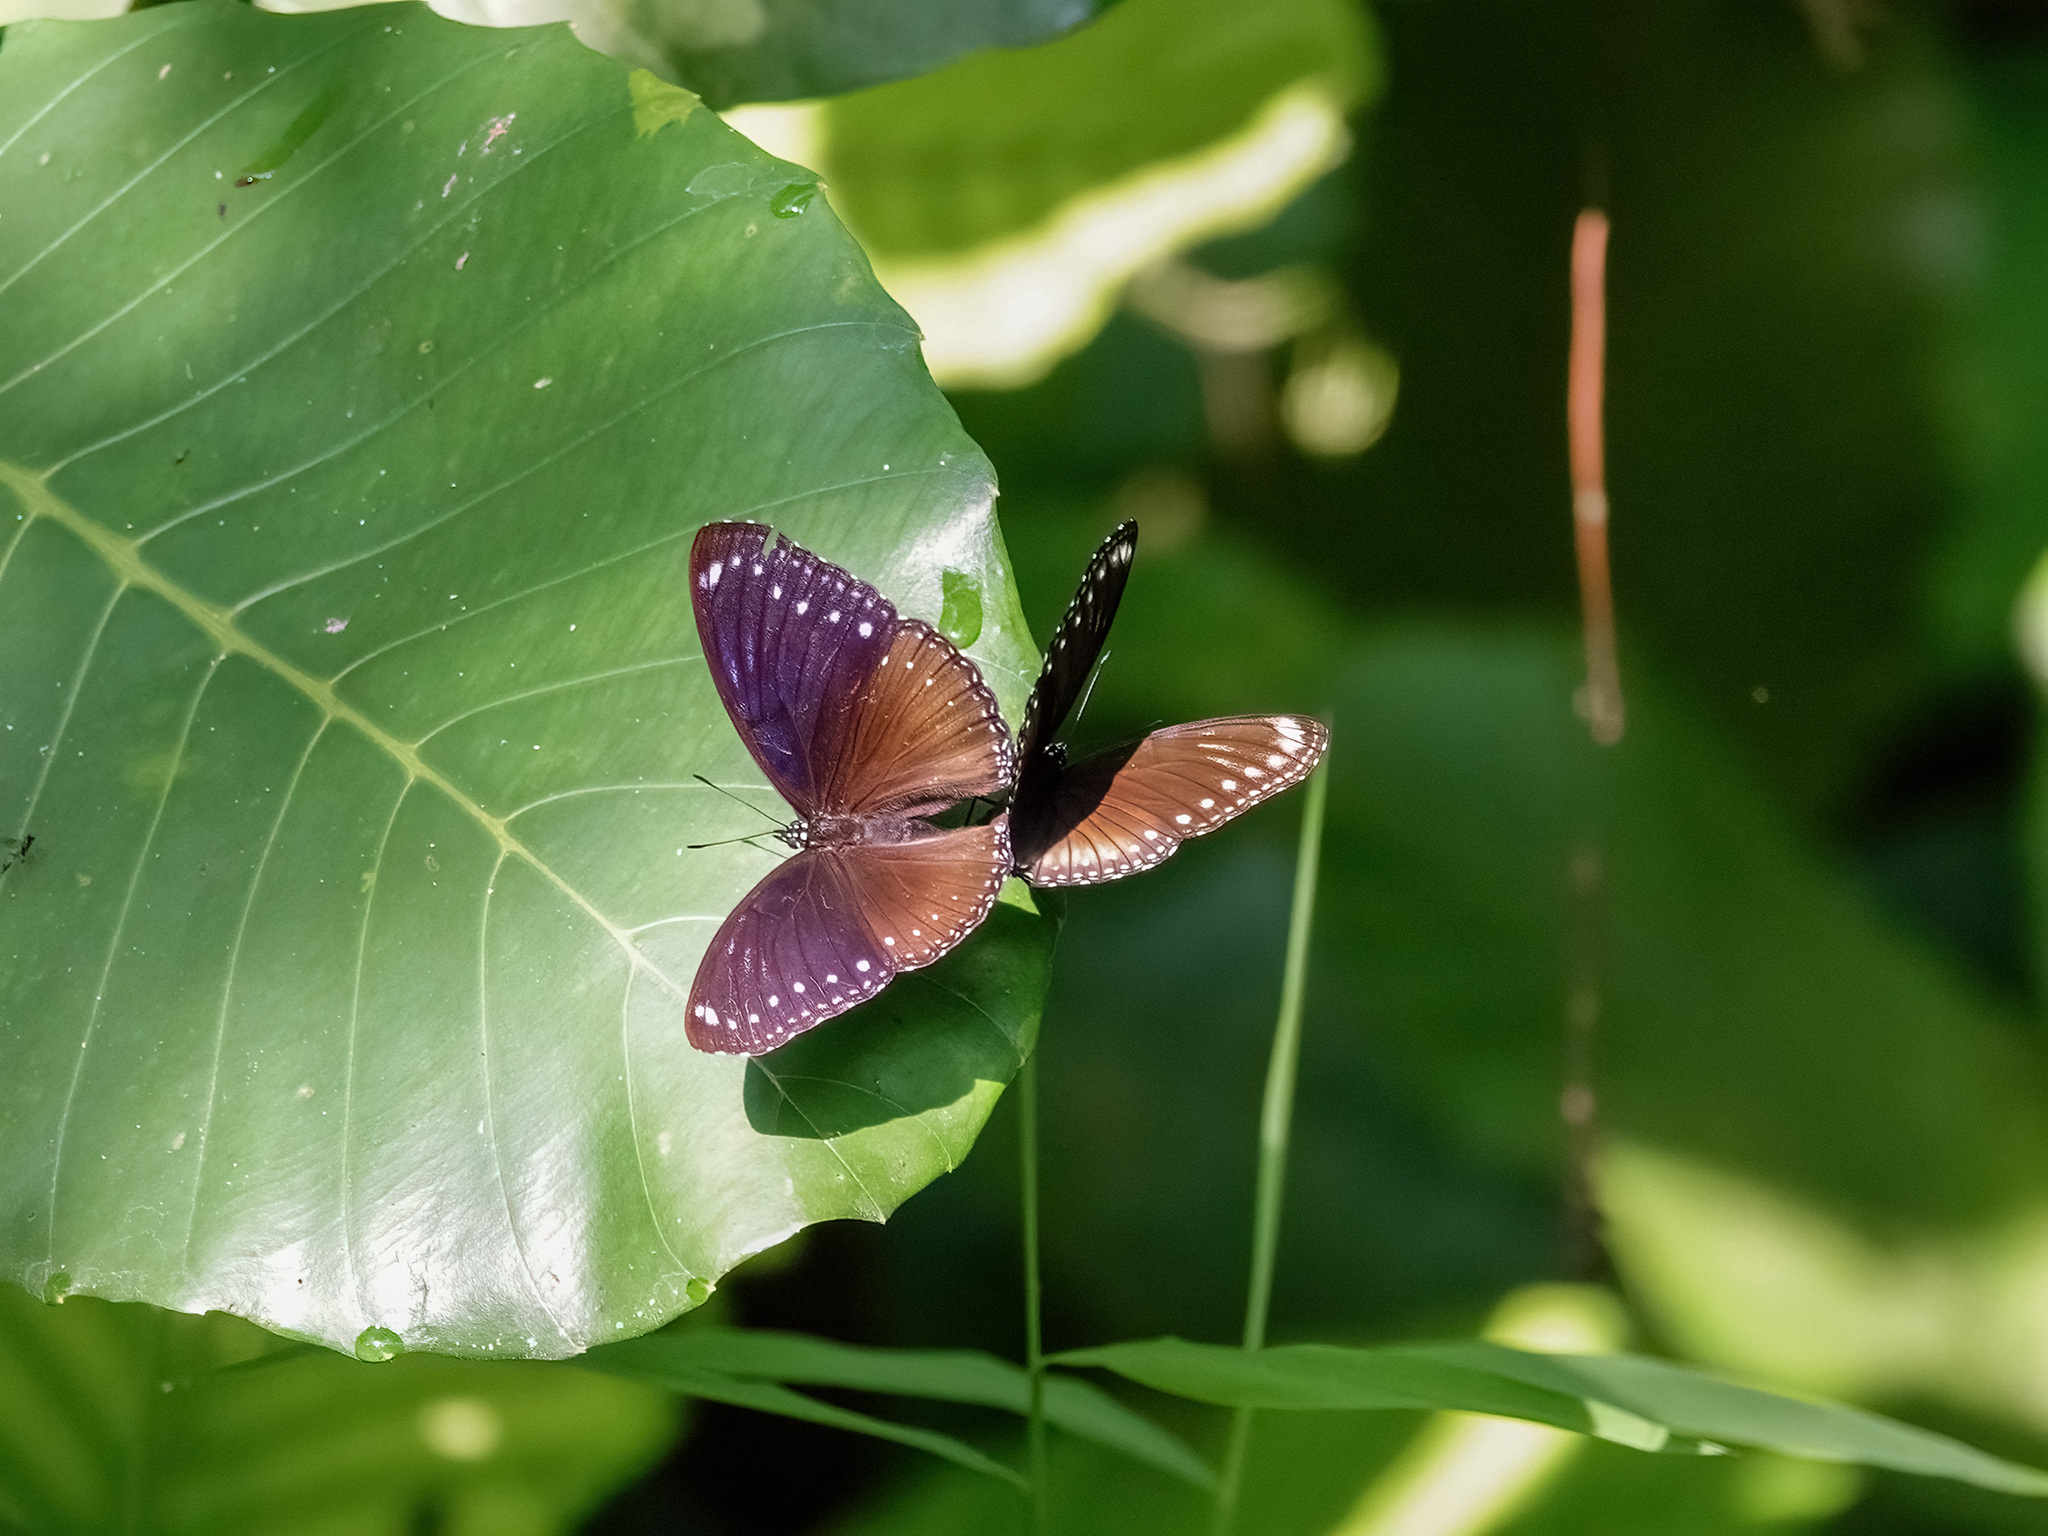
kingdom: Animalia
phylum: Arthropoda
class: Insecta
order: Lepidoptera
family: Nymphalidae
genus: Hypolimnas
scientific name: Hypolimnas anomala
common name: Malayan eggfly
